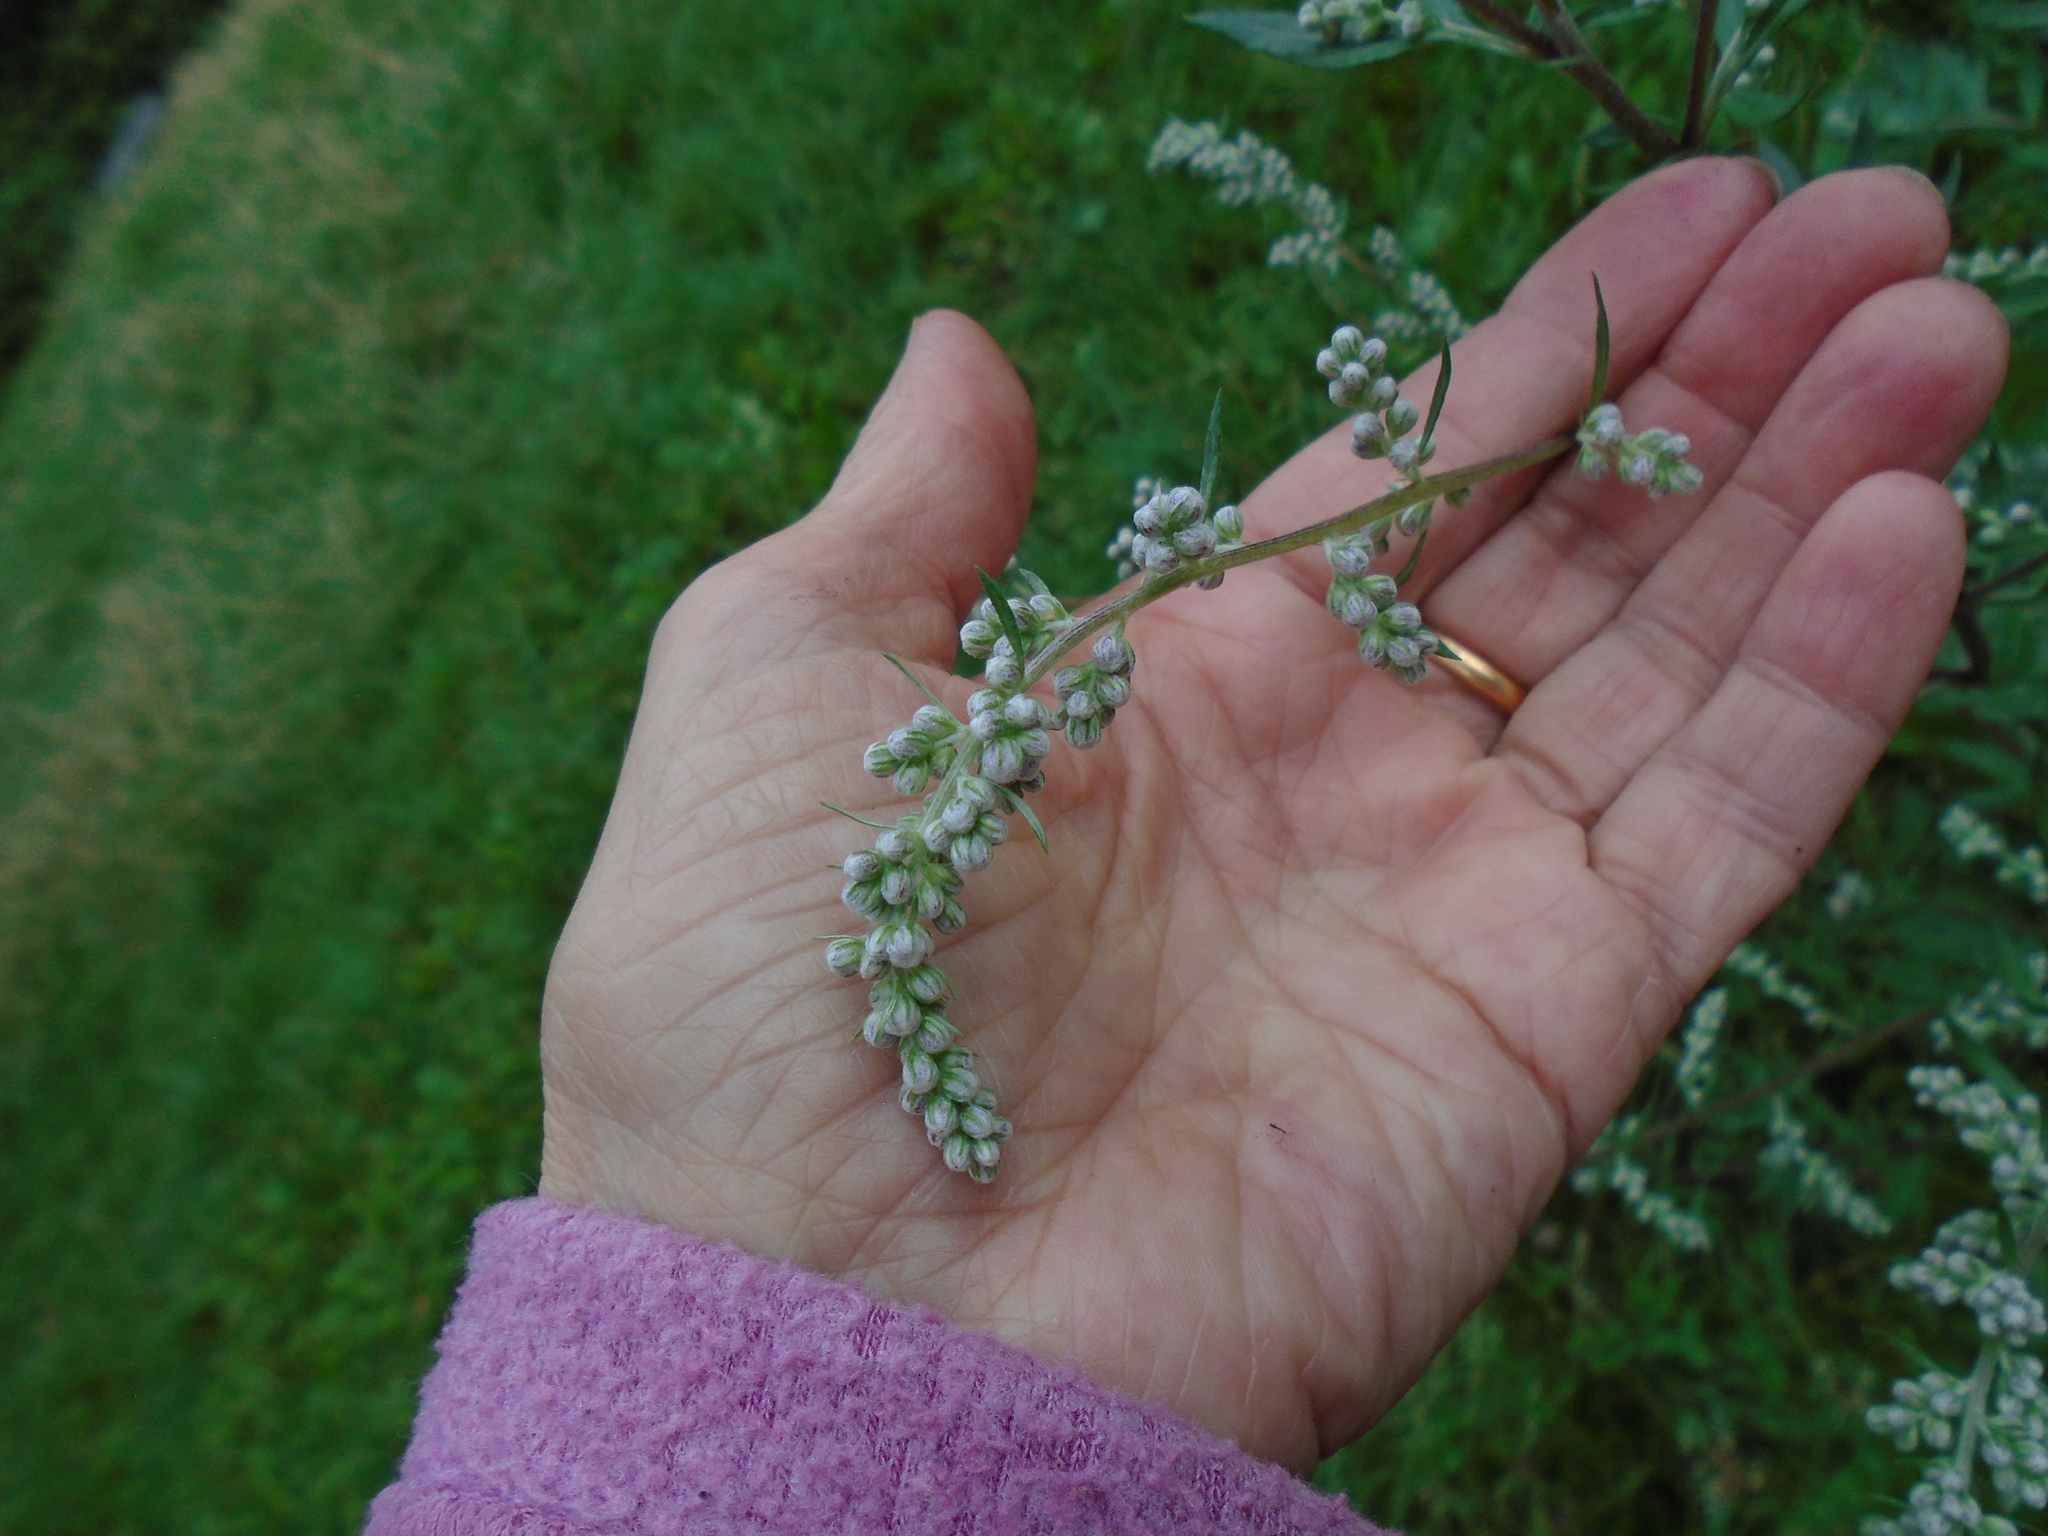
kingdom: Plantae
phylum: Tracheophyta
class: Magnoliopsida
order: Asterales
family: Asteraceae
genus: Artemisia
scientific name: Artemisia vulgaris
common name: Mugwort
